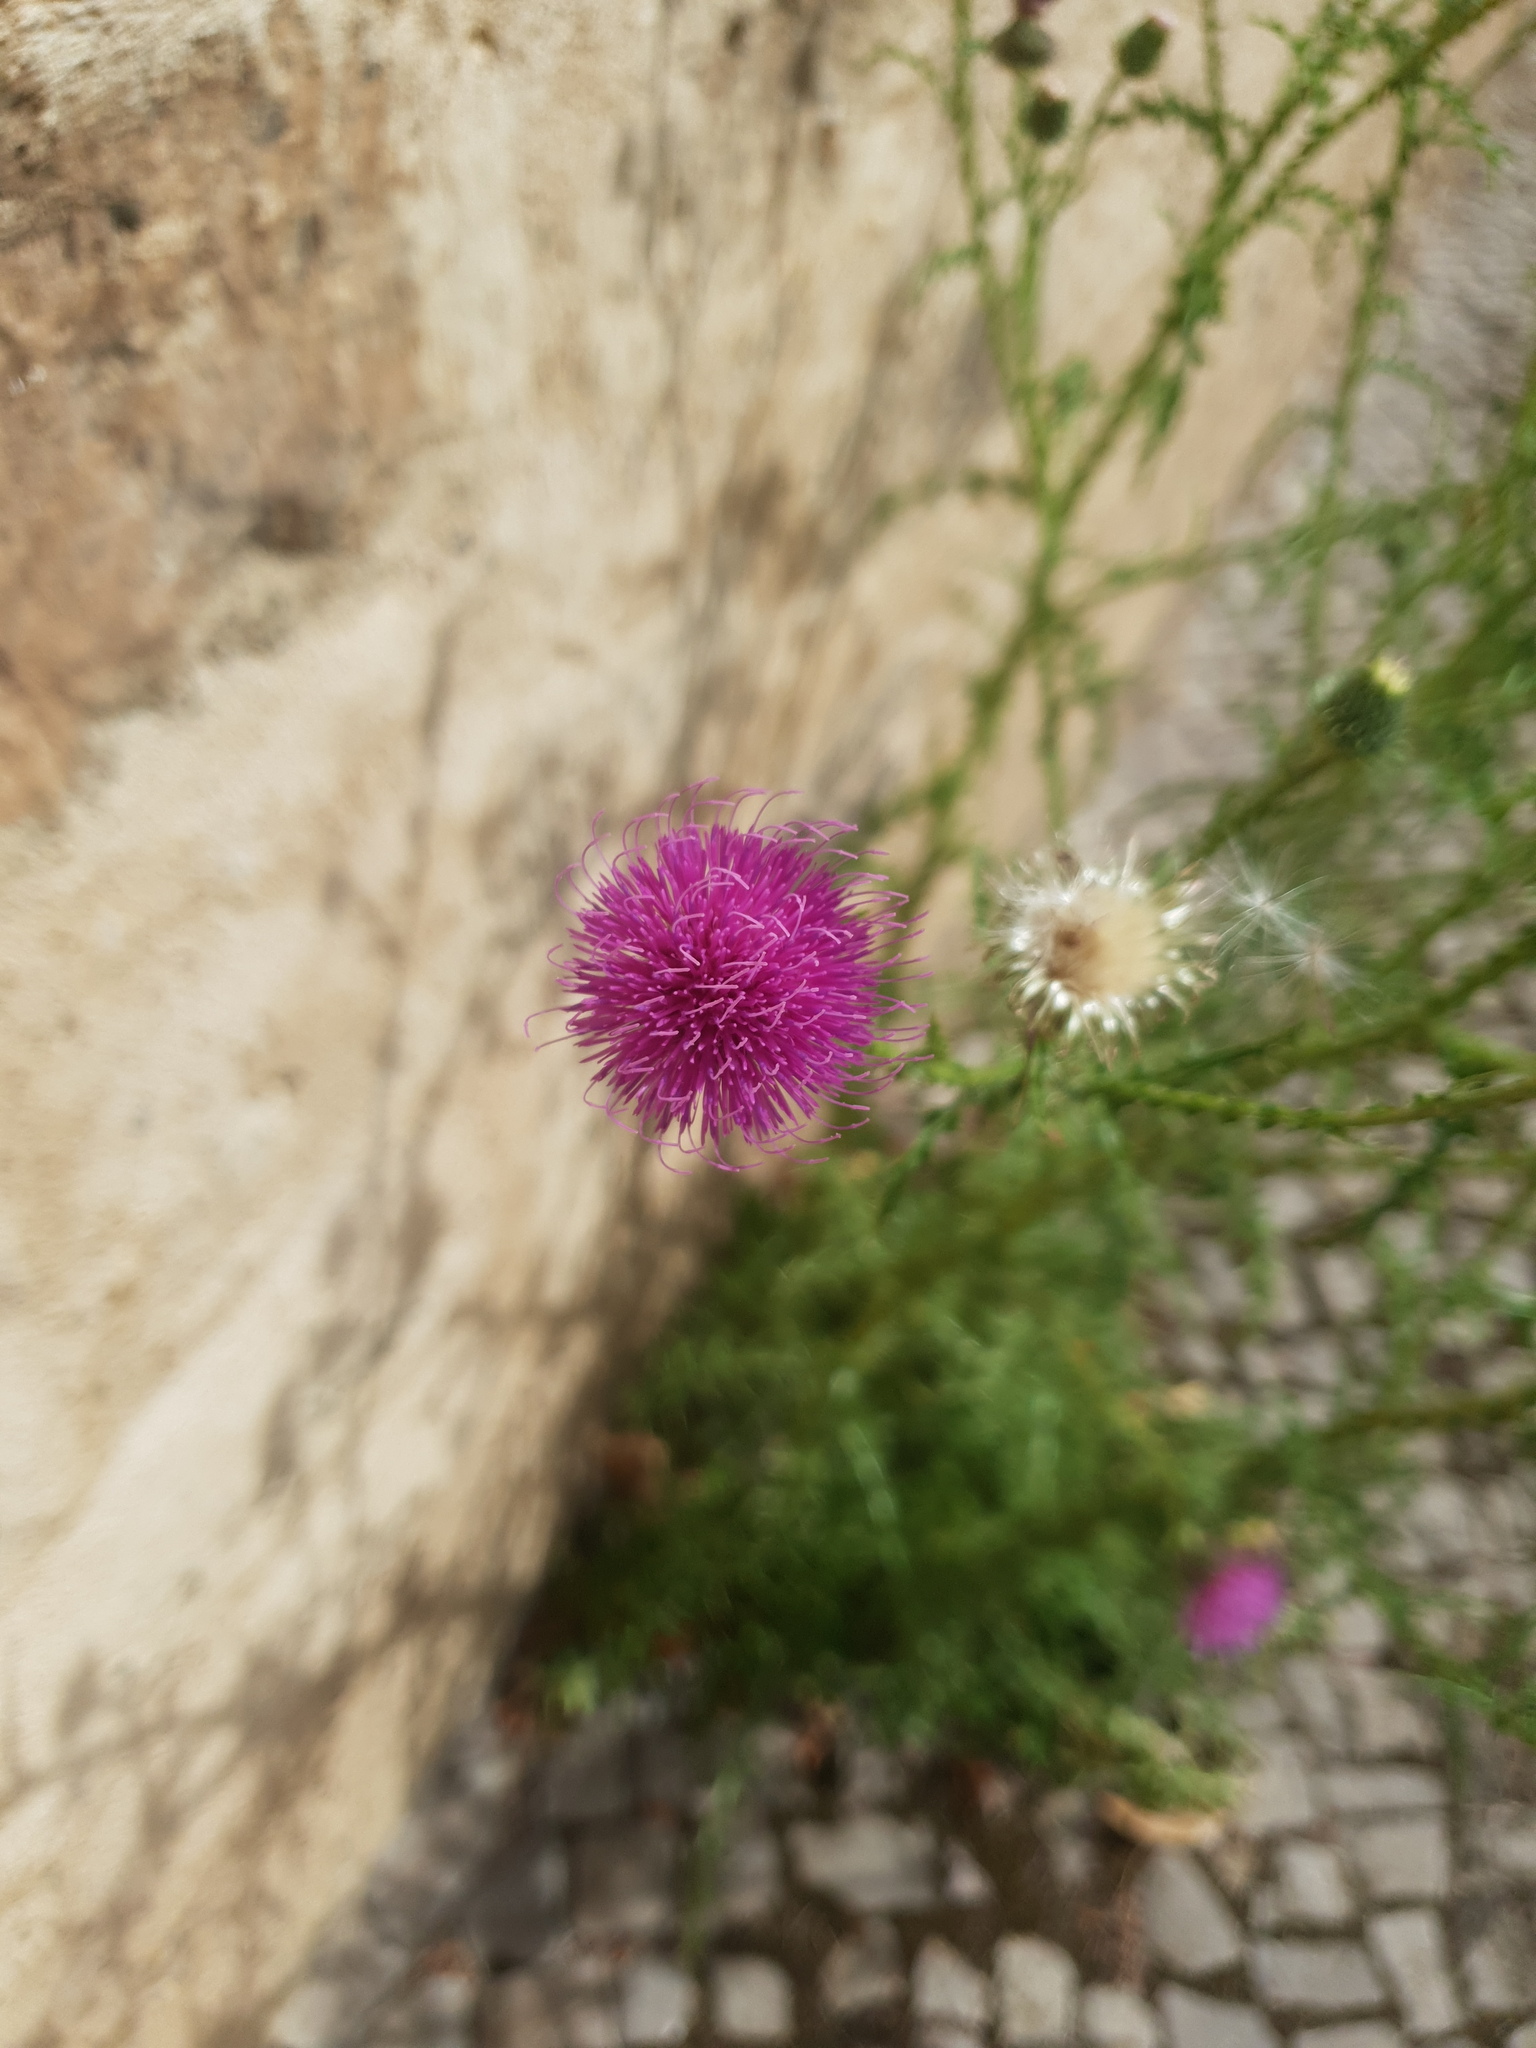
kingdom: Plantae
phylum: Tracheophyta
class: Magnoliopsida
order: Asterales
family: Asteraceae
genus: Carduus
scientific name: Carduus acanthoides
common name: Plumeless thistle
